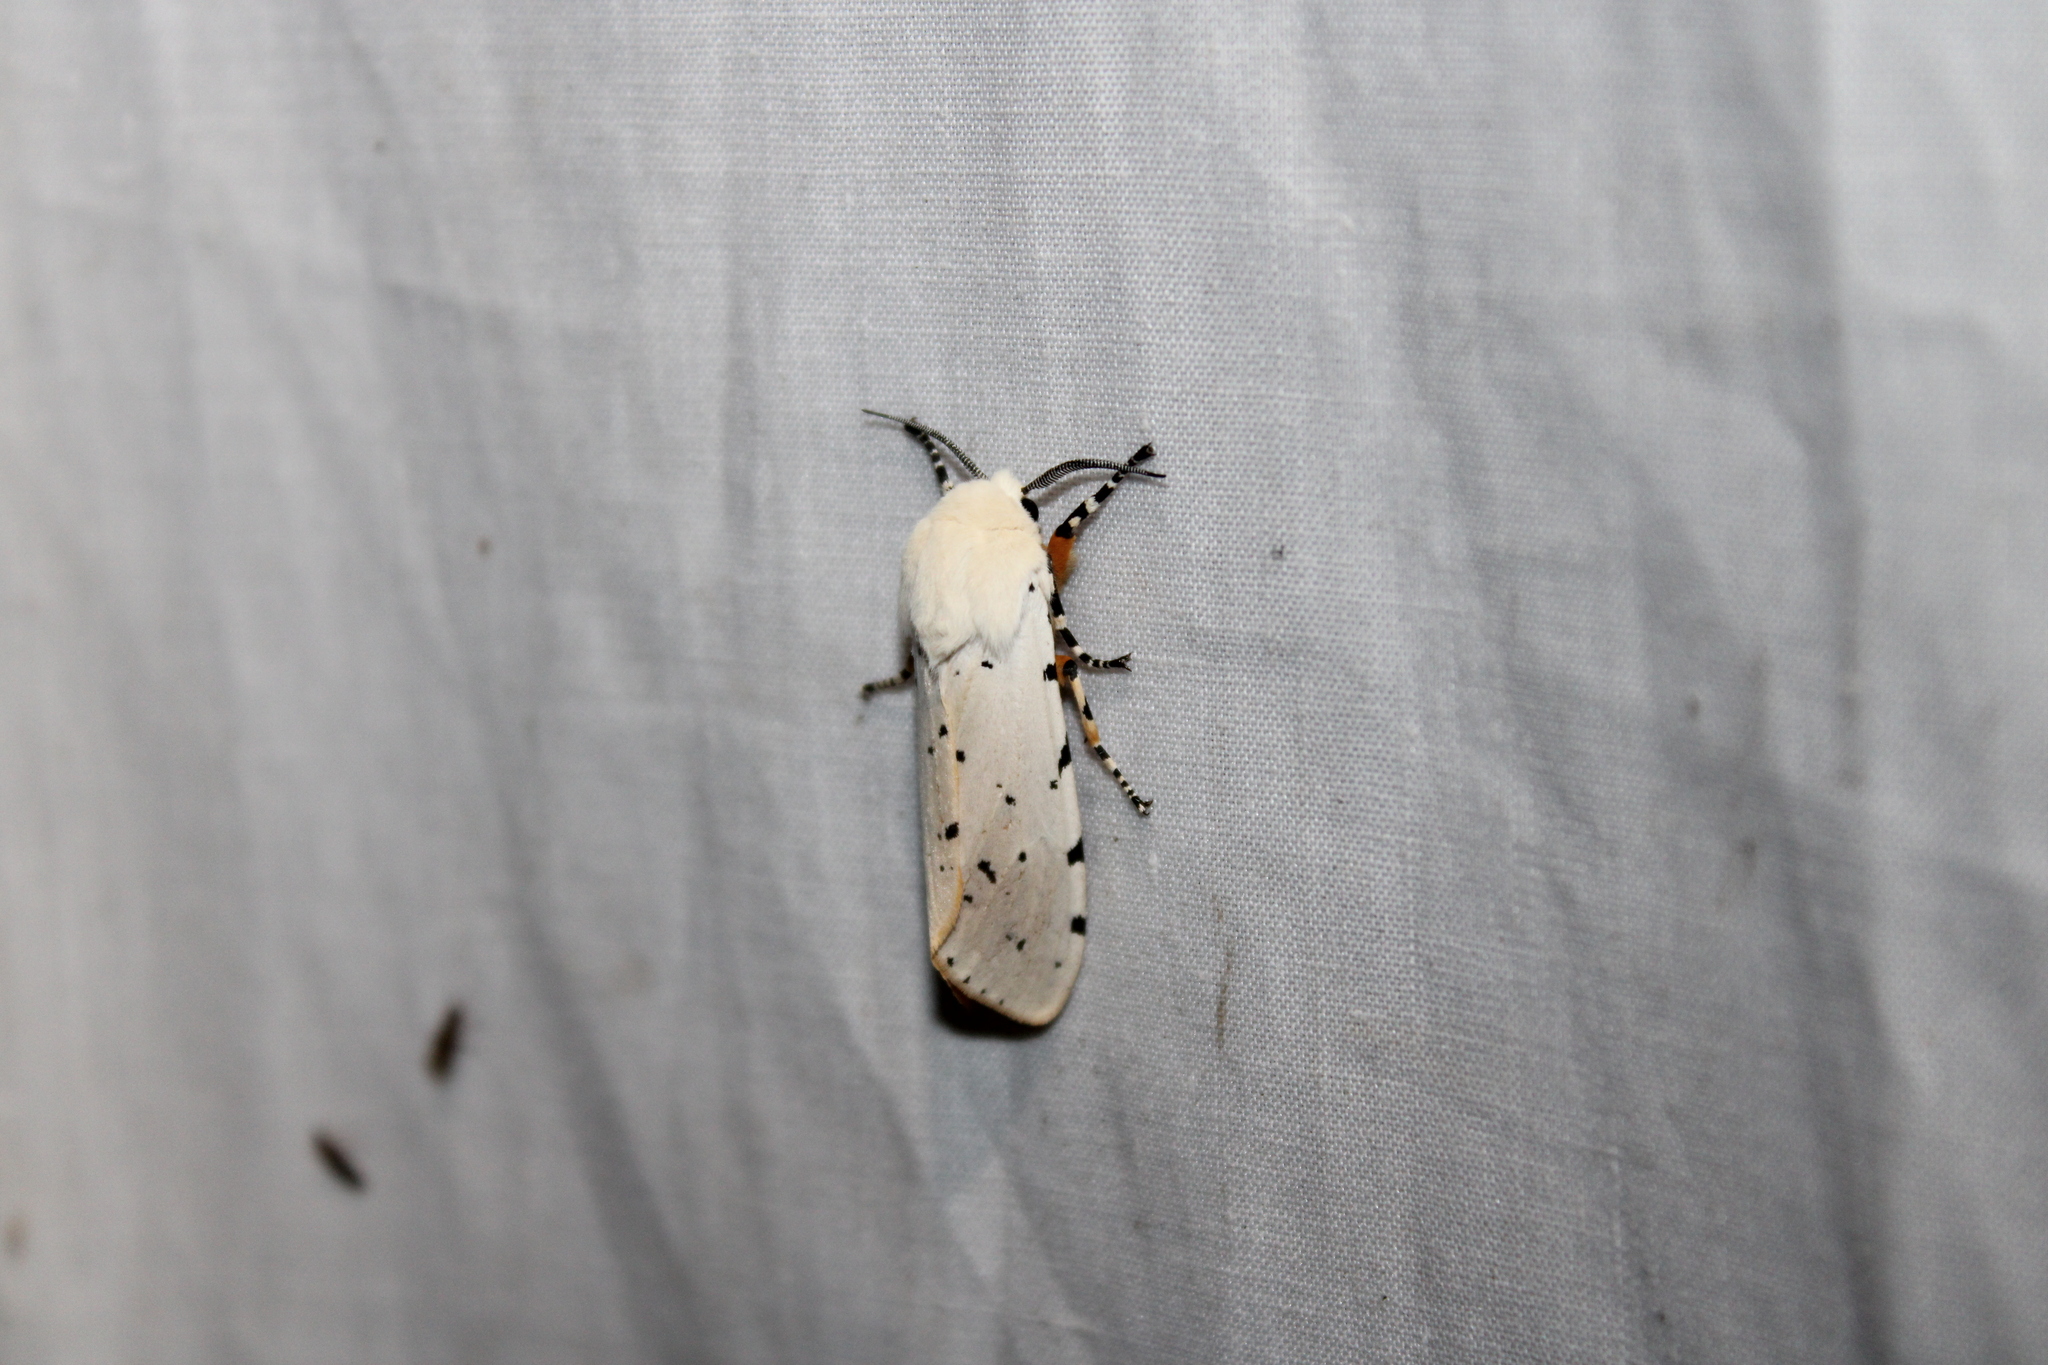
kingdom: Animalia
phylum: Arthropoda
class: Insecta
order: Lepidoptera
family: Erebidae
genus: Estigmene
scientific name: Estigmene acrea
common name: Salt marsh moth
